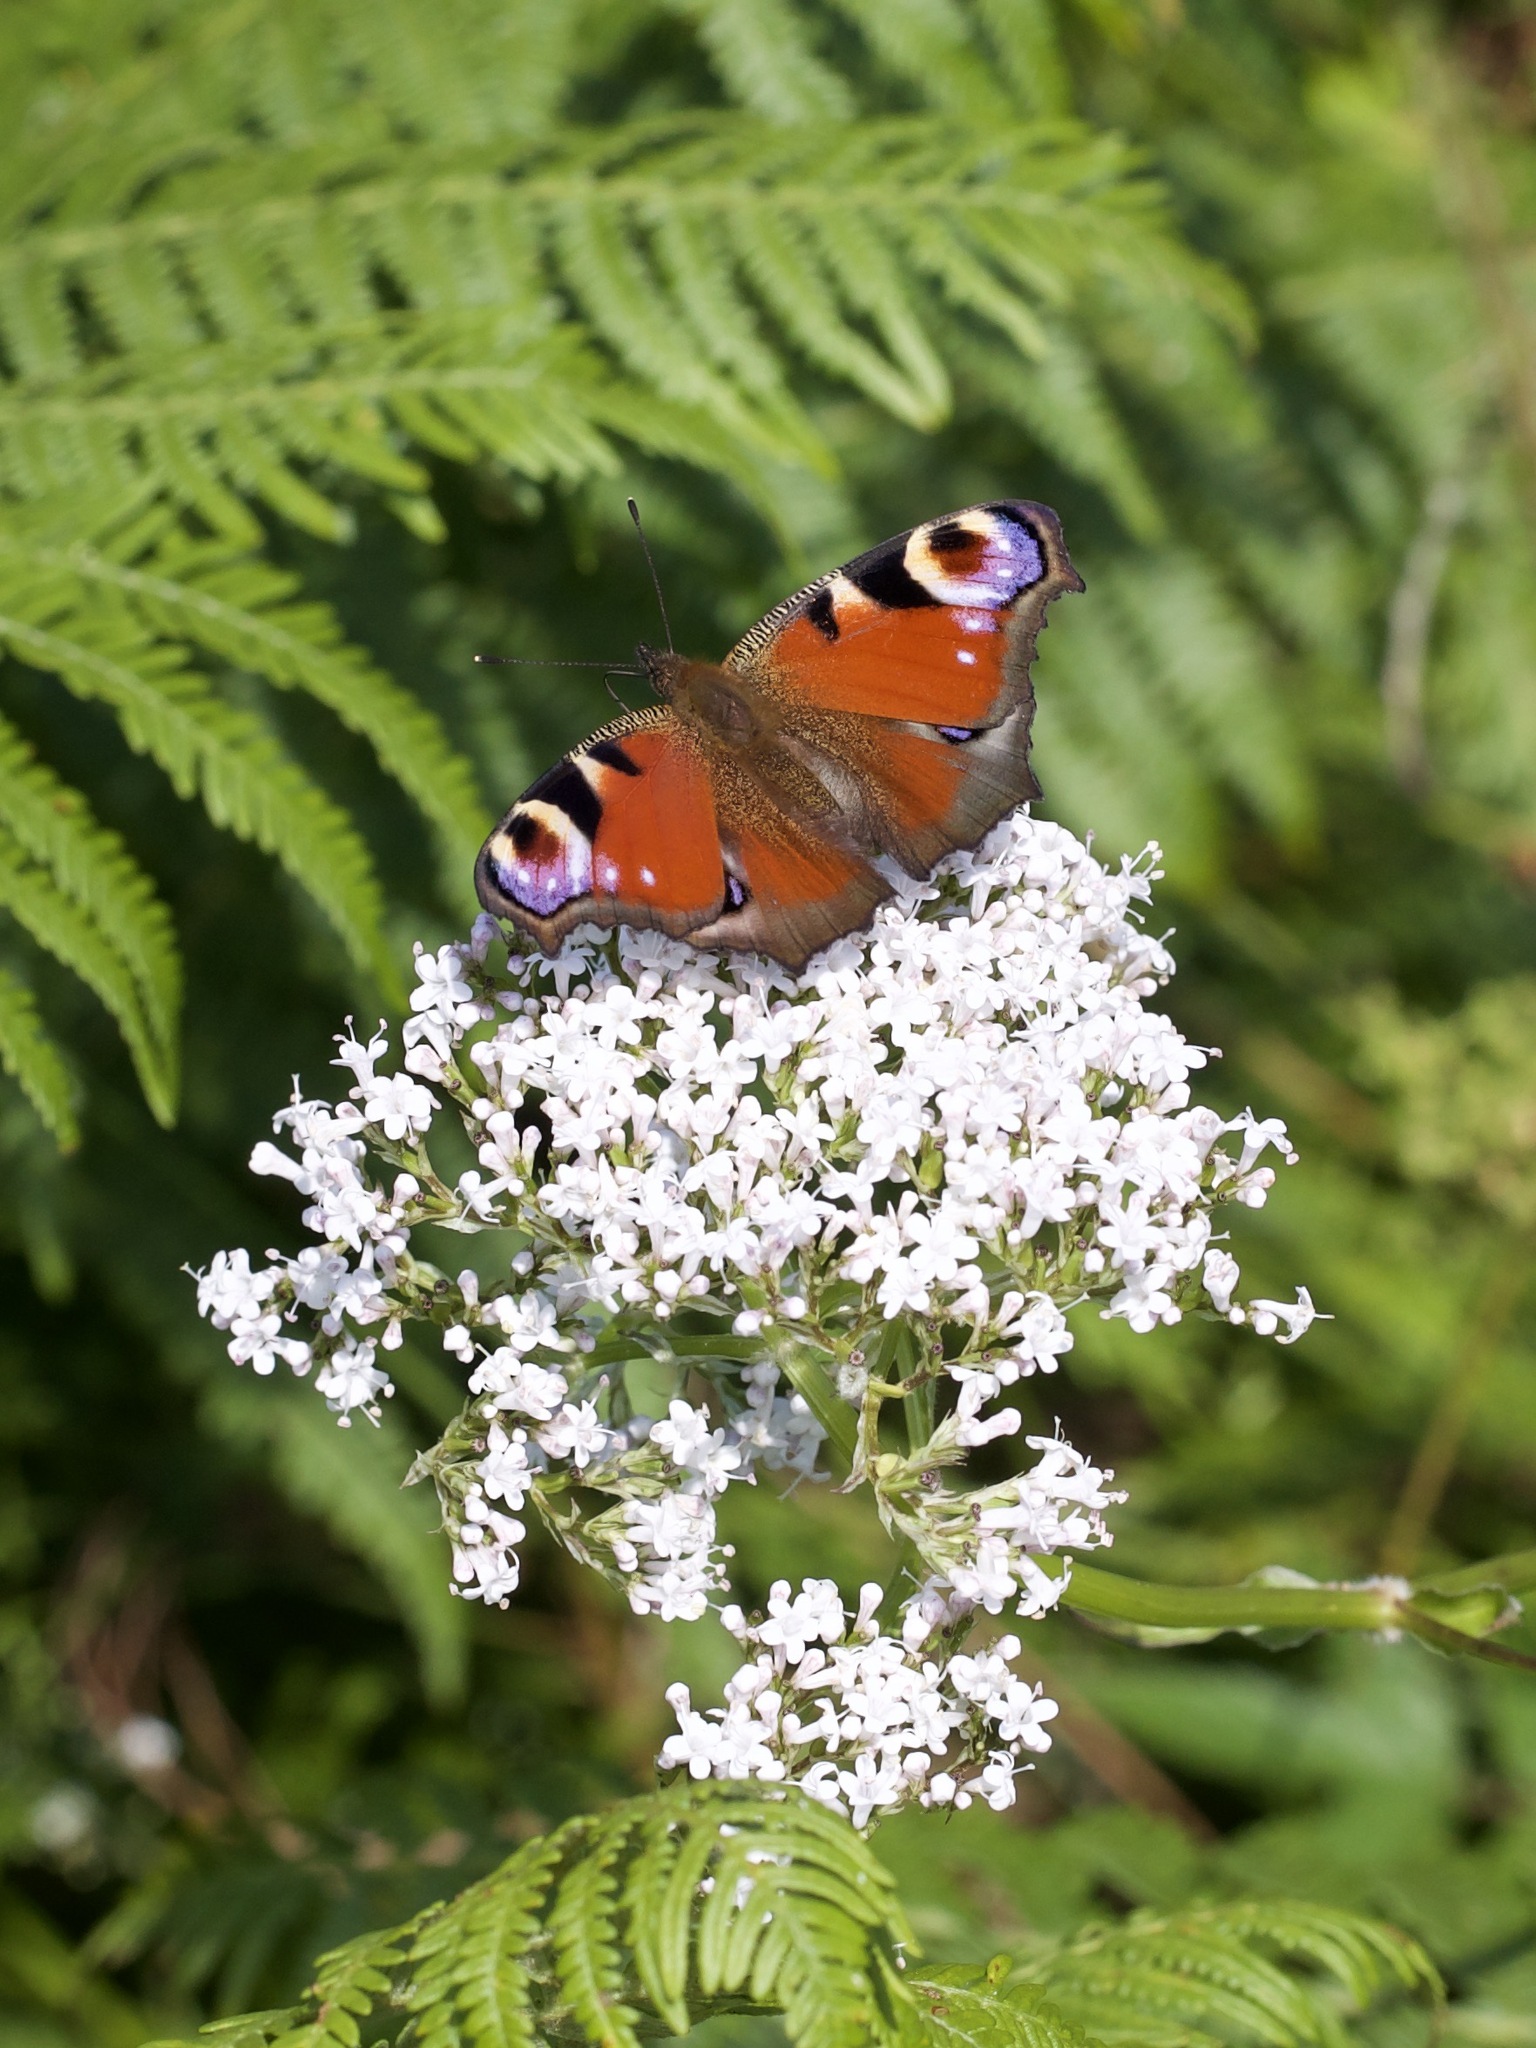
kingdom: Animalia
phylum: Arthropoda
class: Insecta
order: Lepidoptera
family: Nymphalidae
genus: Aglais
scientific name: Aglais io
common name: Peacock
